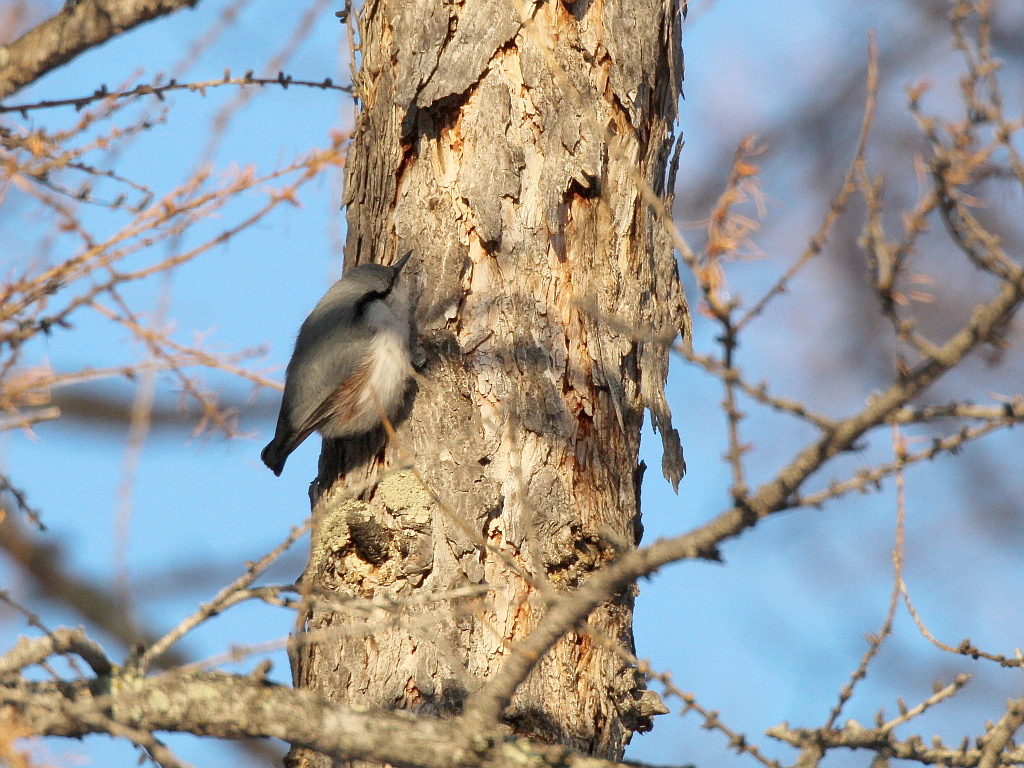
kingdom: Animalia
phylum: Chordata
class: Aves
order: Passeriformes
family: Sittidae
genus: Sitta
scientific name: Sitta europaea
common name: Eurasian nuthatch
